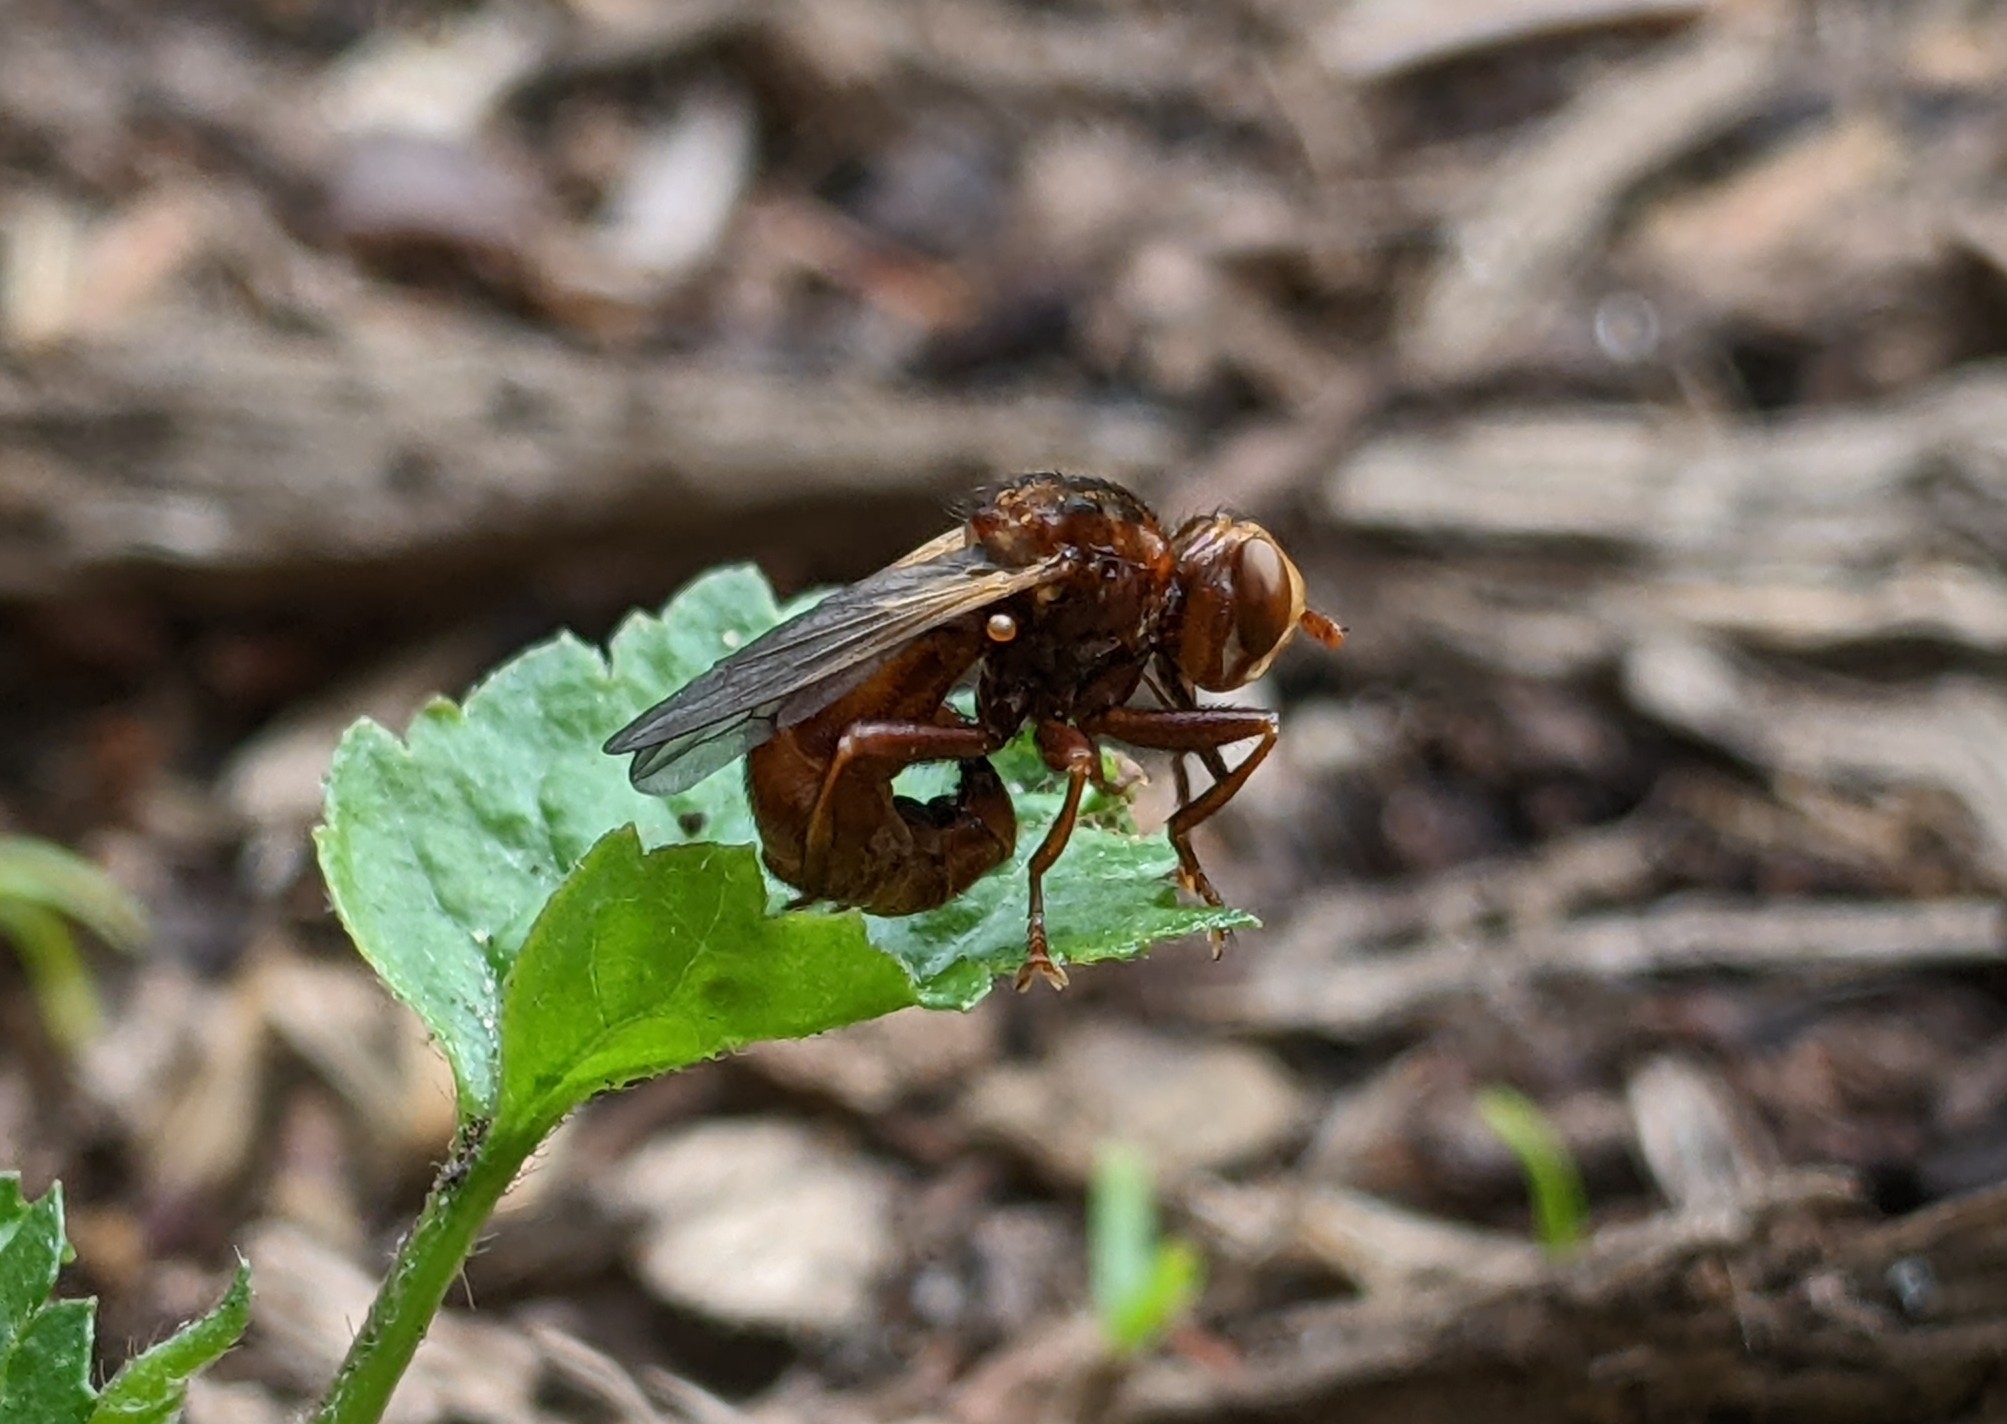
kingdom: Animalia
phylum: Arthropoda
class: Insecta
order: Diptera
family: Conopidae
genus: Sicus
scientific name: Sicus ferrugineus
